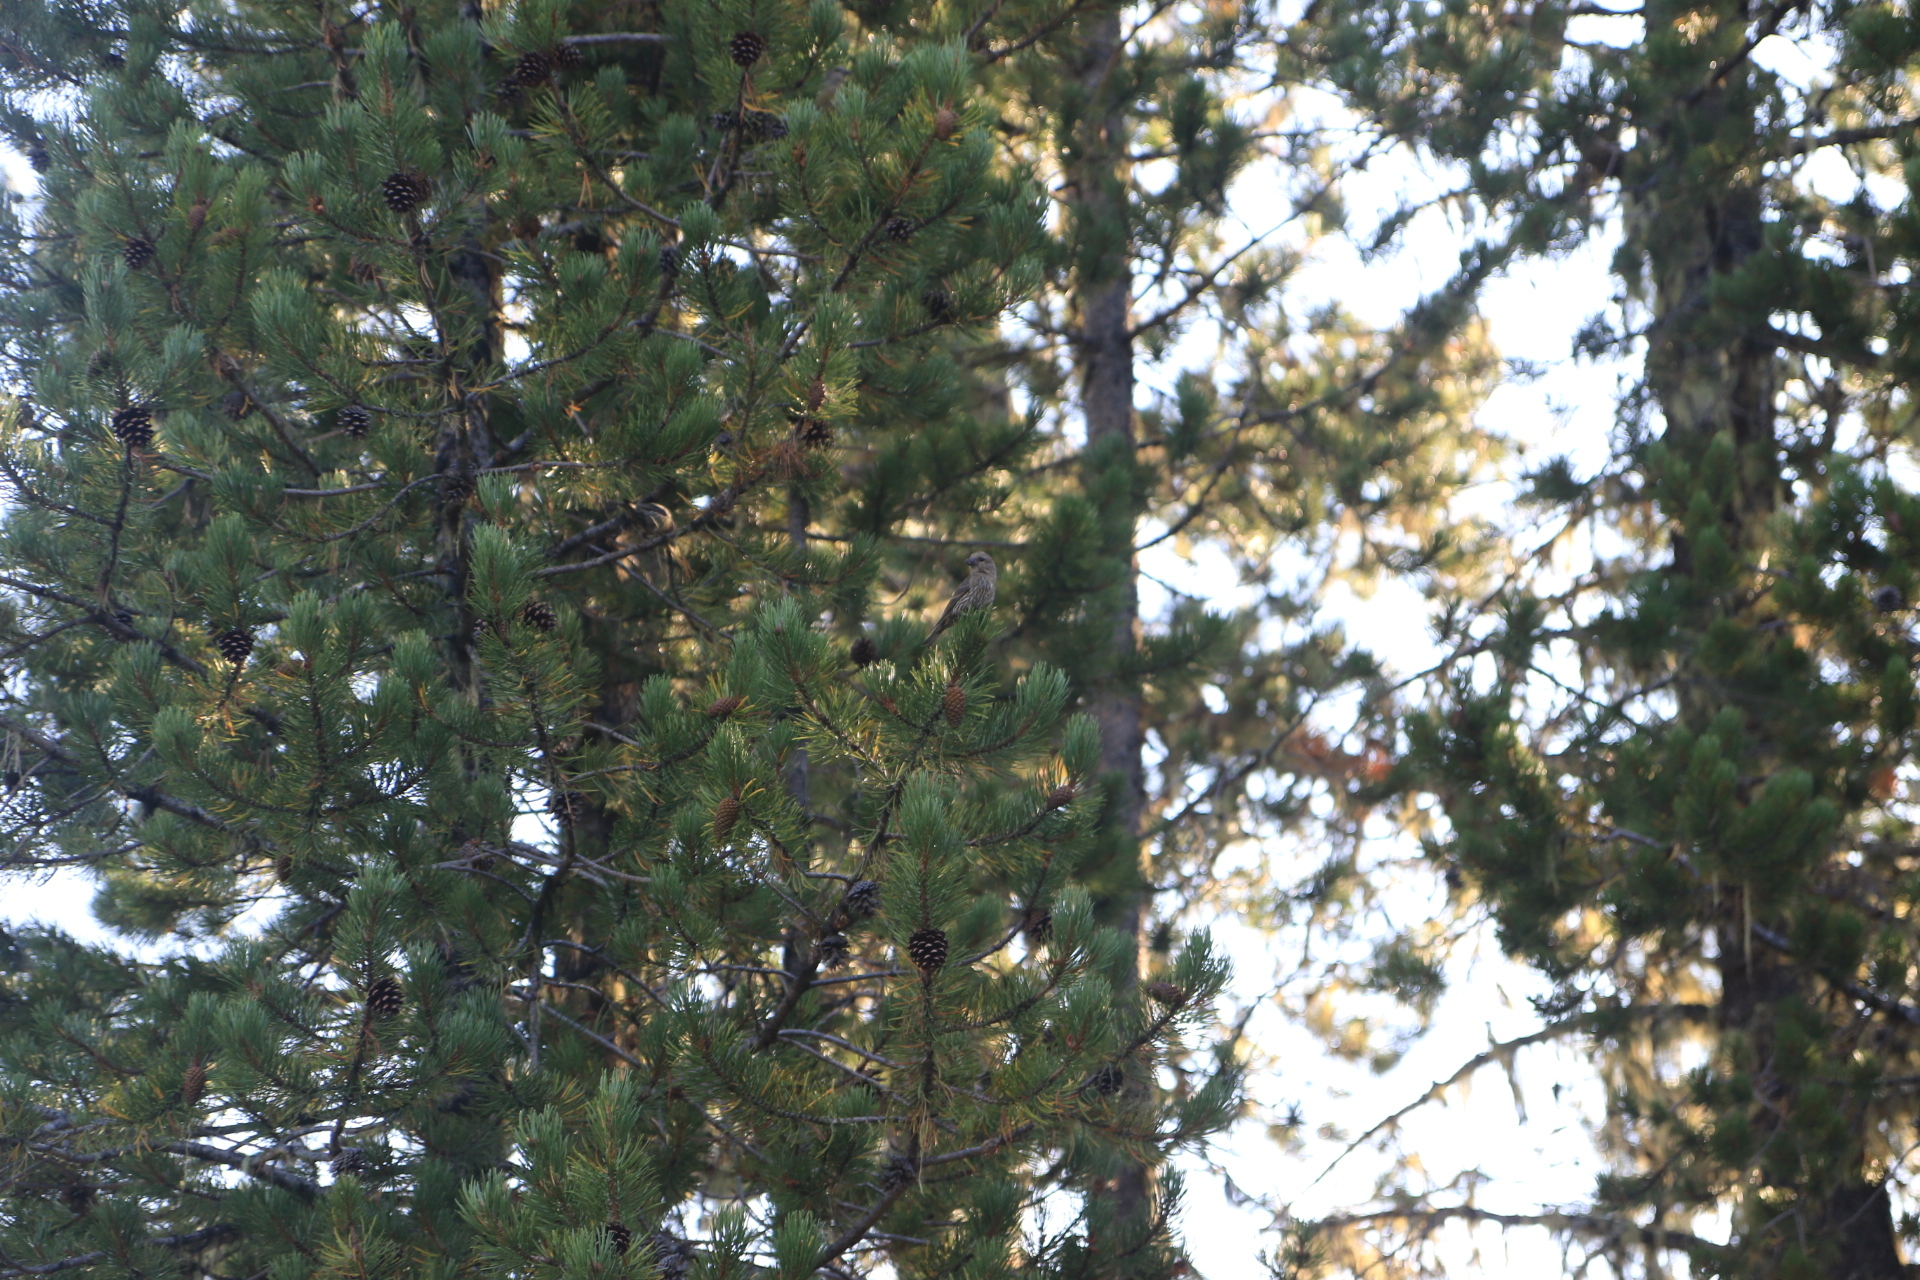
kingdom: Animalia
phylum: Chordata
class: Aves
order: Passeriformes
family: Fringillidae
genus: Loxia
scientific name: Loxia curvirostra
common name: Red crossbill
